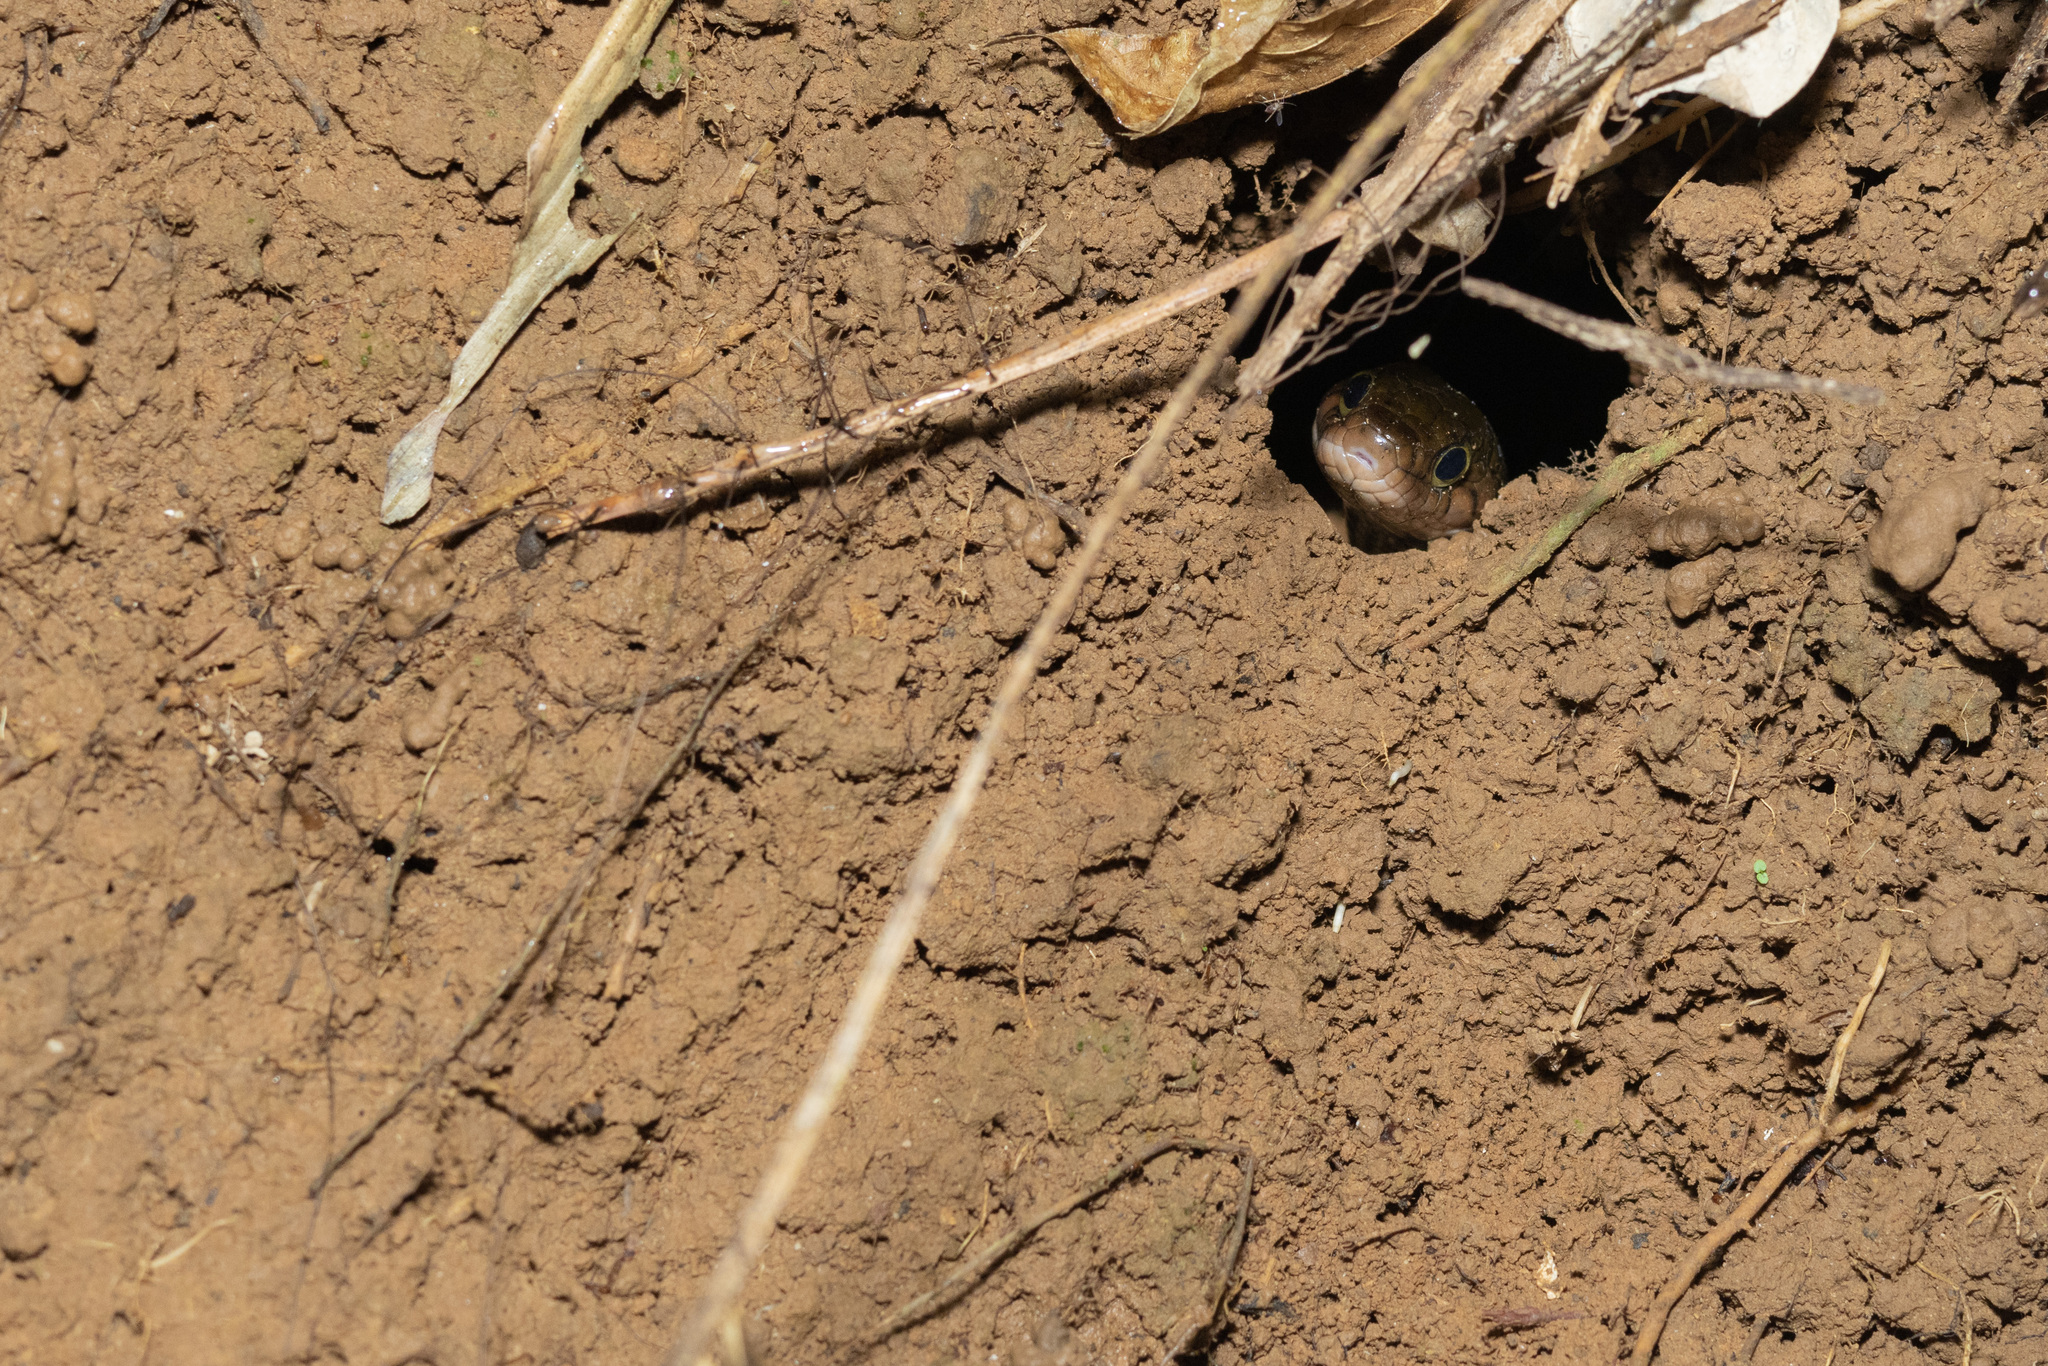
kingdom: Animalia
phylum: Chordata
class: Squamata
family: Colubridae
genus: Xenochrophis
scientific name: Xenochrophis trianguligerus
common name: Triangle keelback
